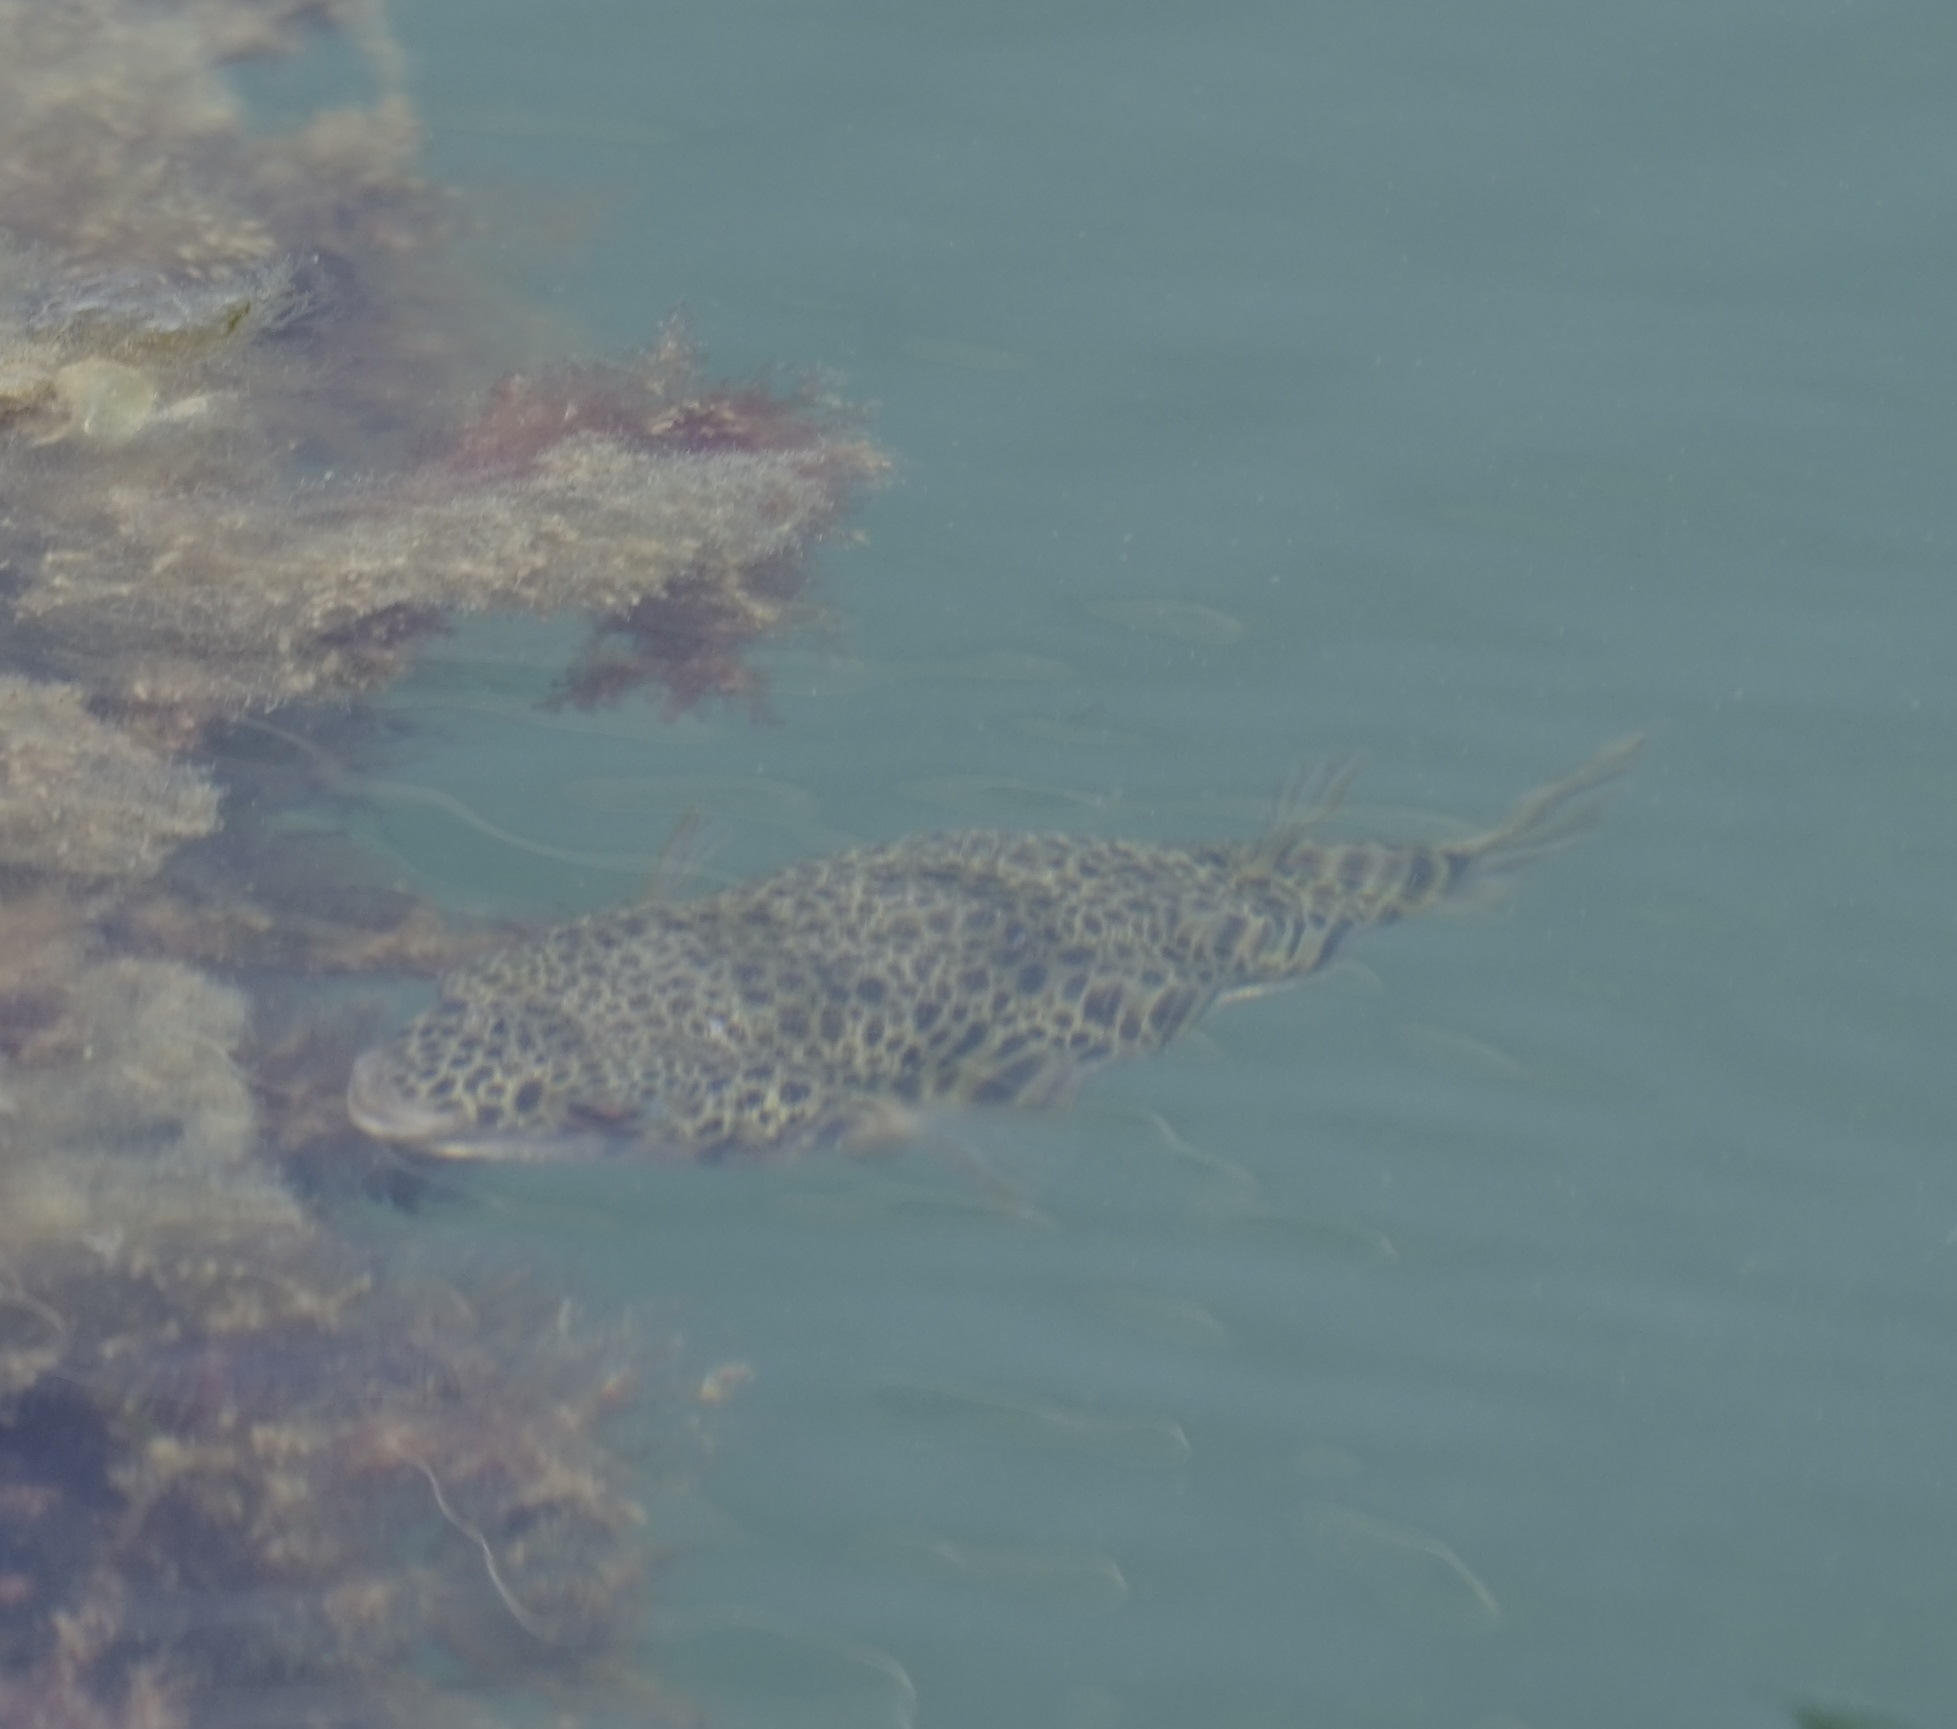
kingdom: Animalia
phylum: Chordata
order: Tetraodontiformes
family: Tetraodontidae
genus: Tetractenos
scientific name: Tetractenos hamiltoni
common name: Common toadfish
